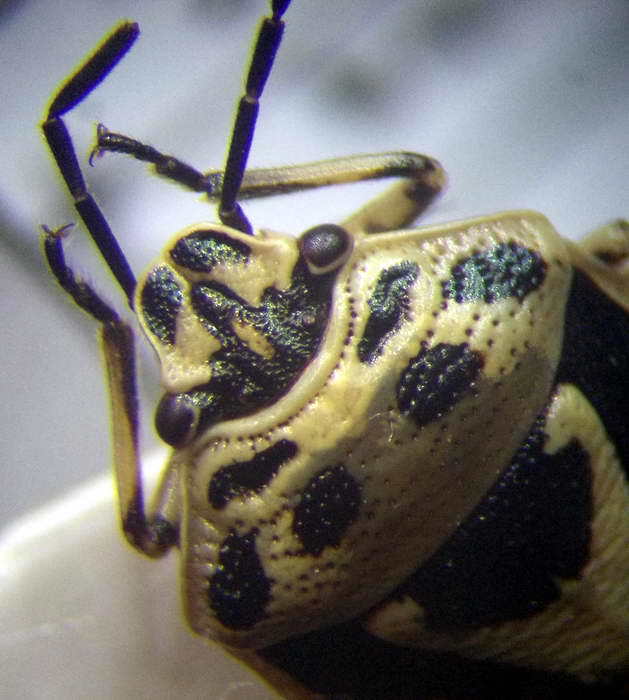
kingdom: Animalia
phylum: Arthropoda
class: Insecta
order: Hemiptera
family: Pentatomidae
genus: Eurydema
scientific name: Eurydema ornata
